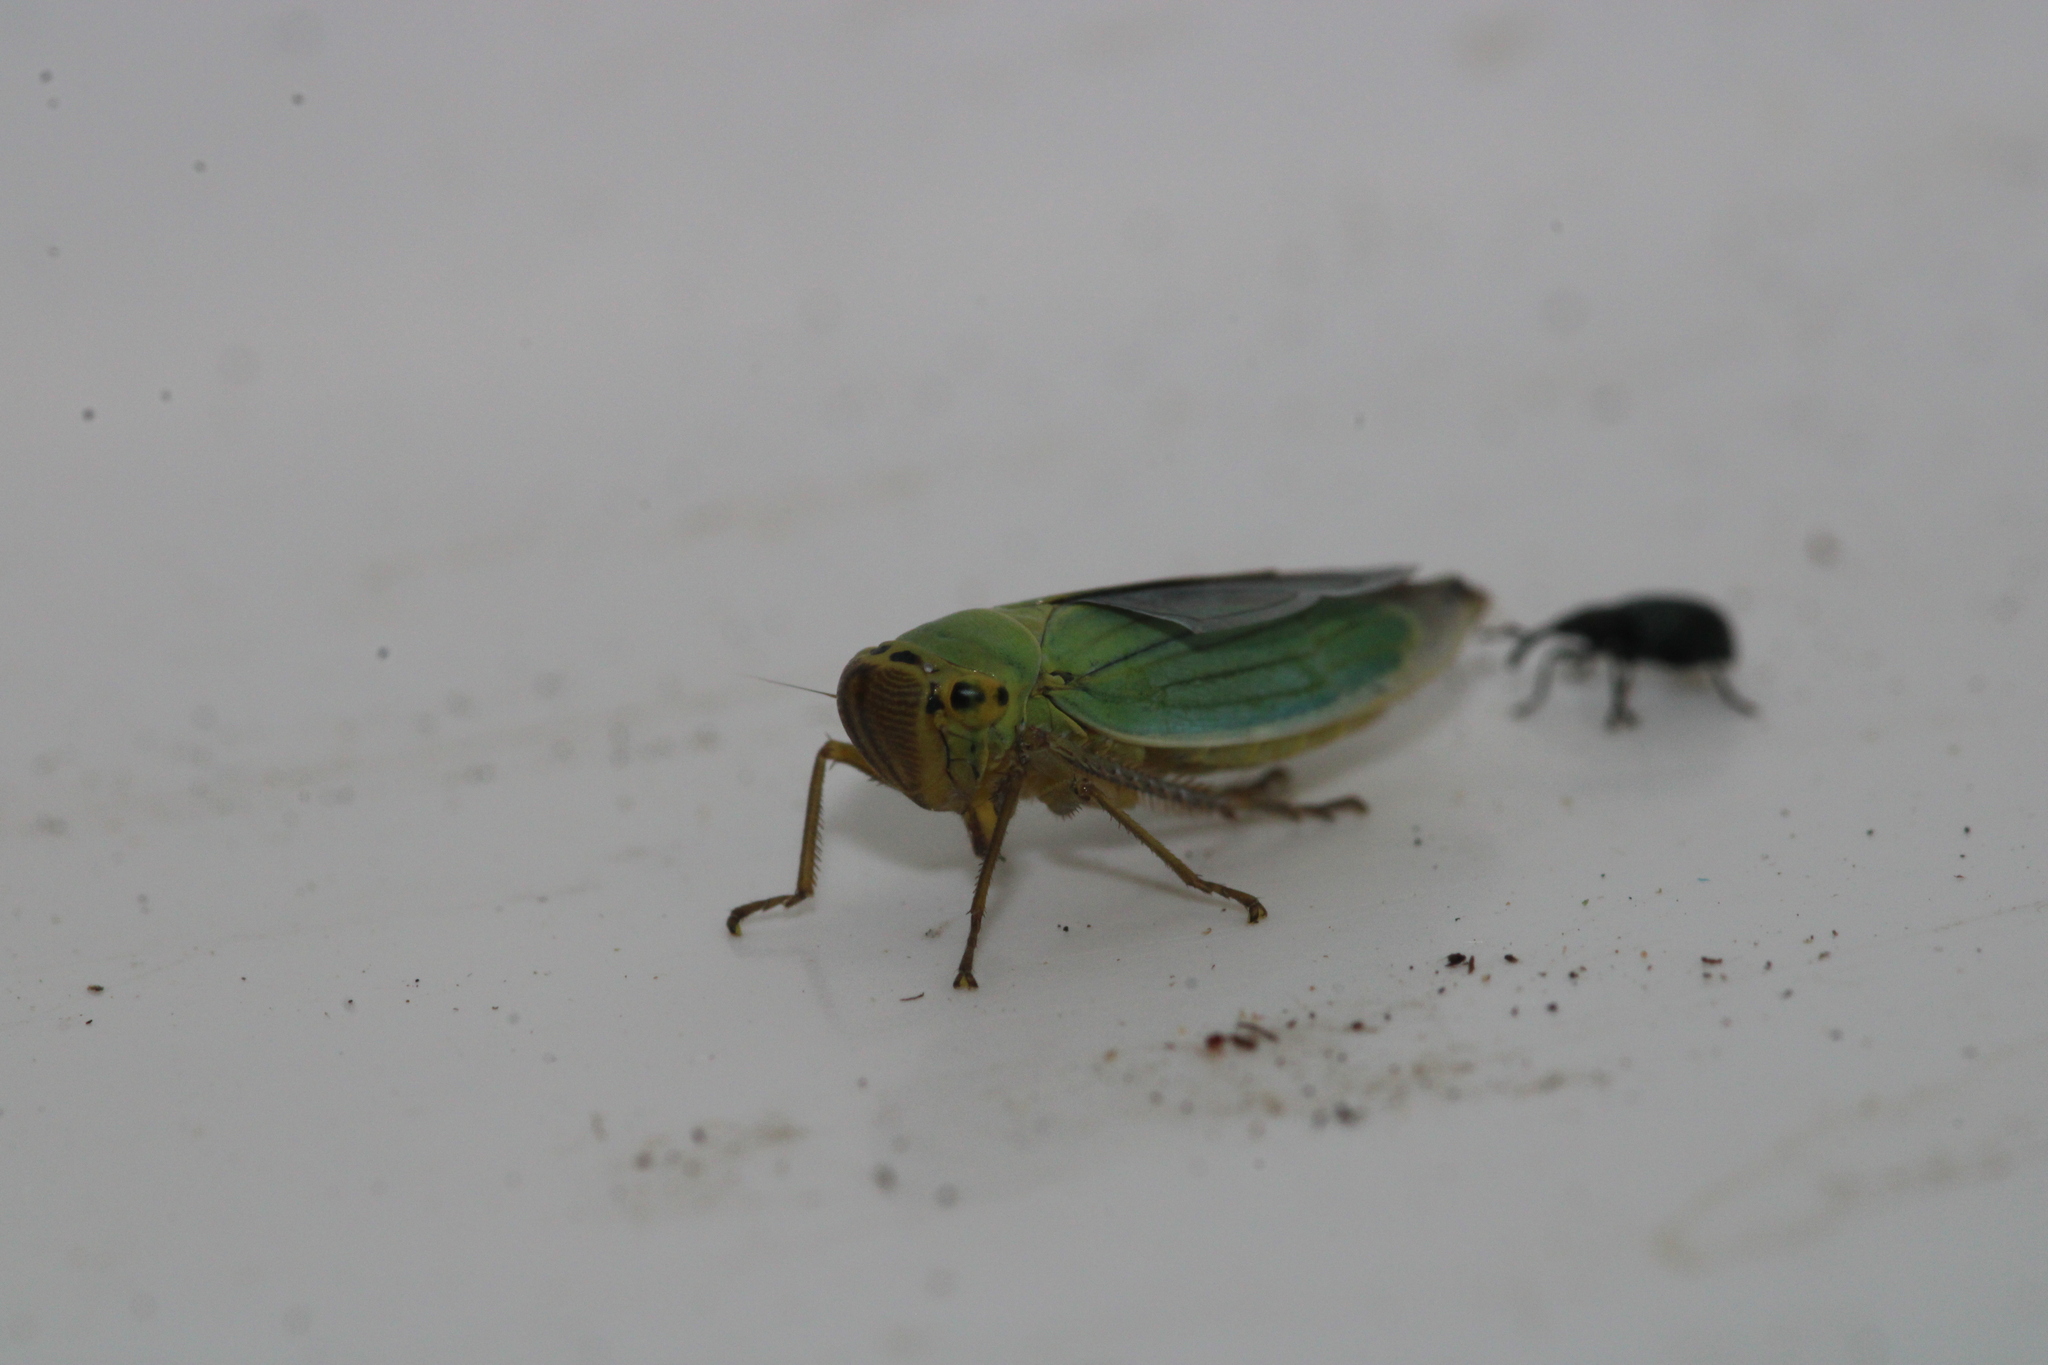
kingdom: Animalia
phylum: Arthropoda
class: Insecta
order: Hemiptera
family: Cicadellidae
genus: Cicadella
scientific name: Cicadella viridis
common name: Leafhopper
